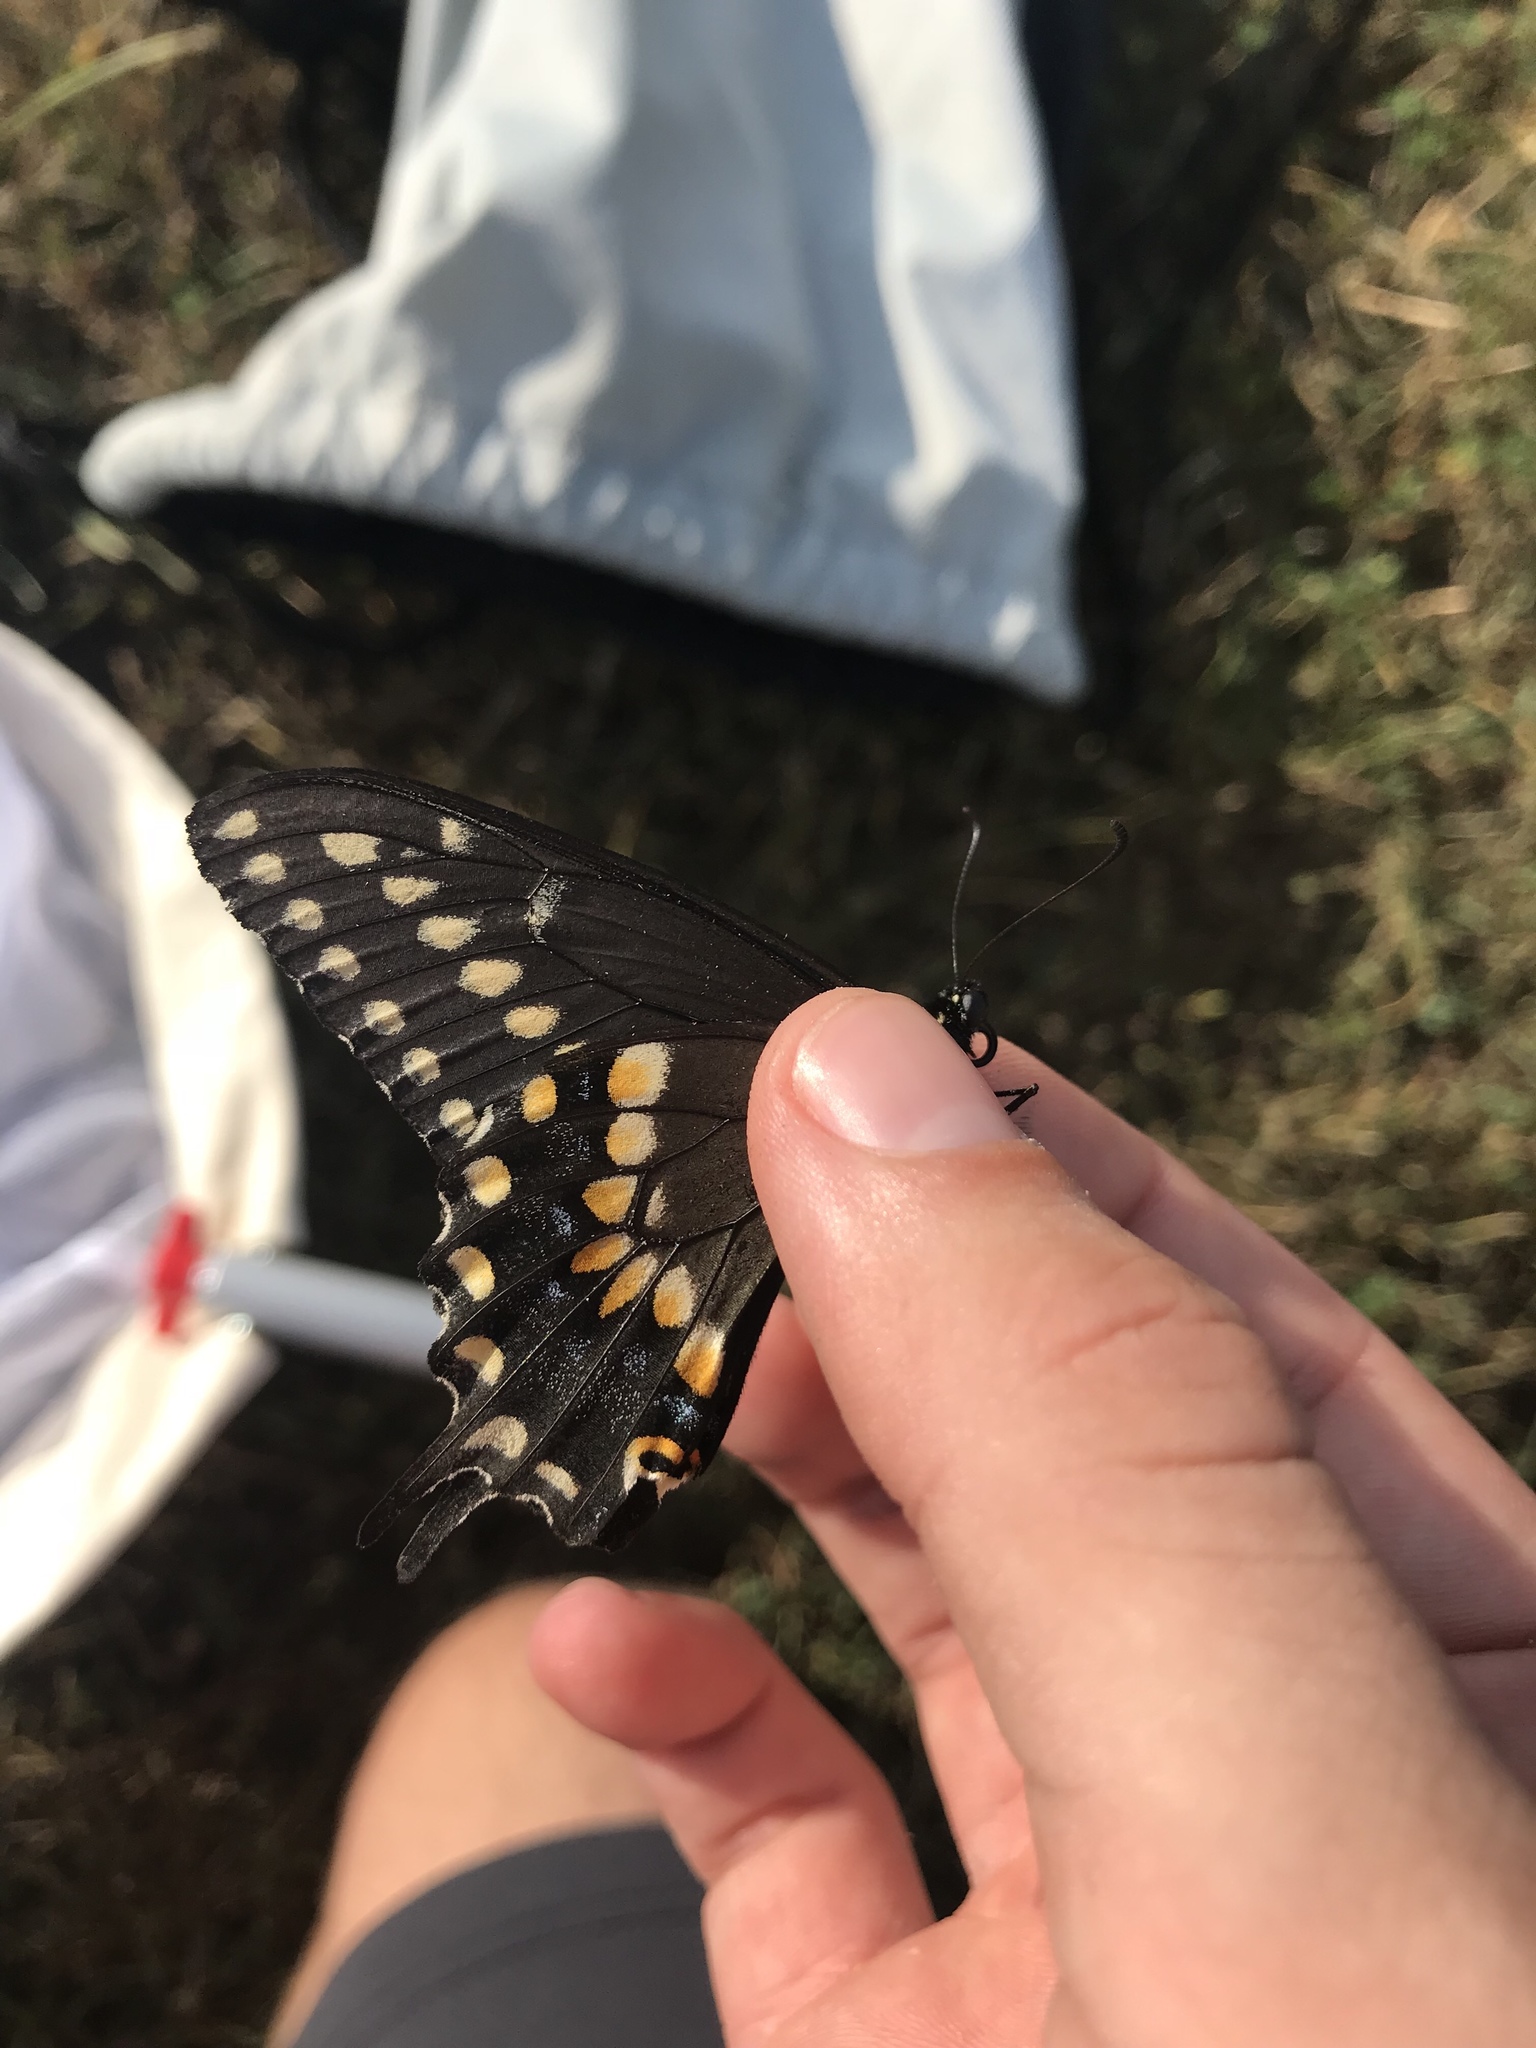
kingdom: Animalia
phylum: Arthropoda
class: Insecta
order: Lepidoptera
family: Papilionidae
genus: Papilio
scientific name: Papilio polyxenes
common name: Black swallowtail
